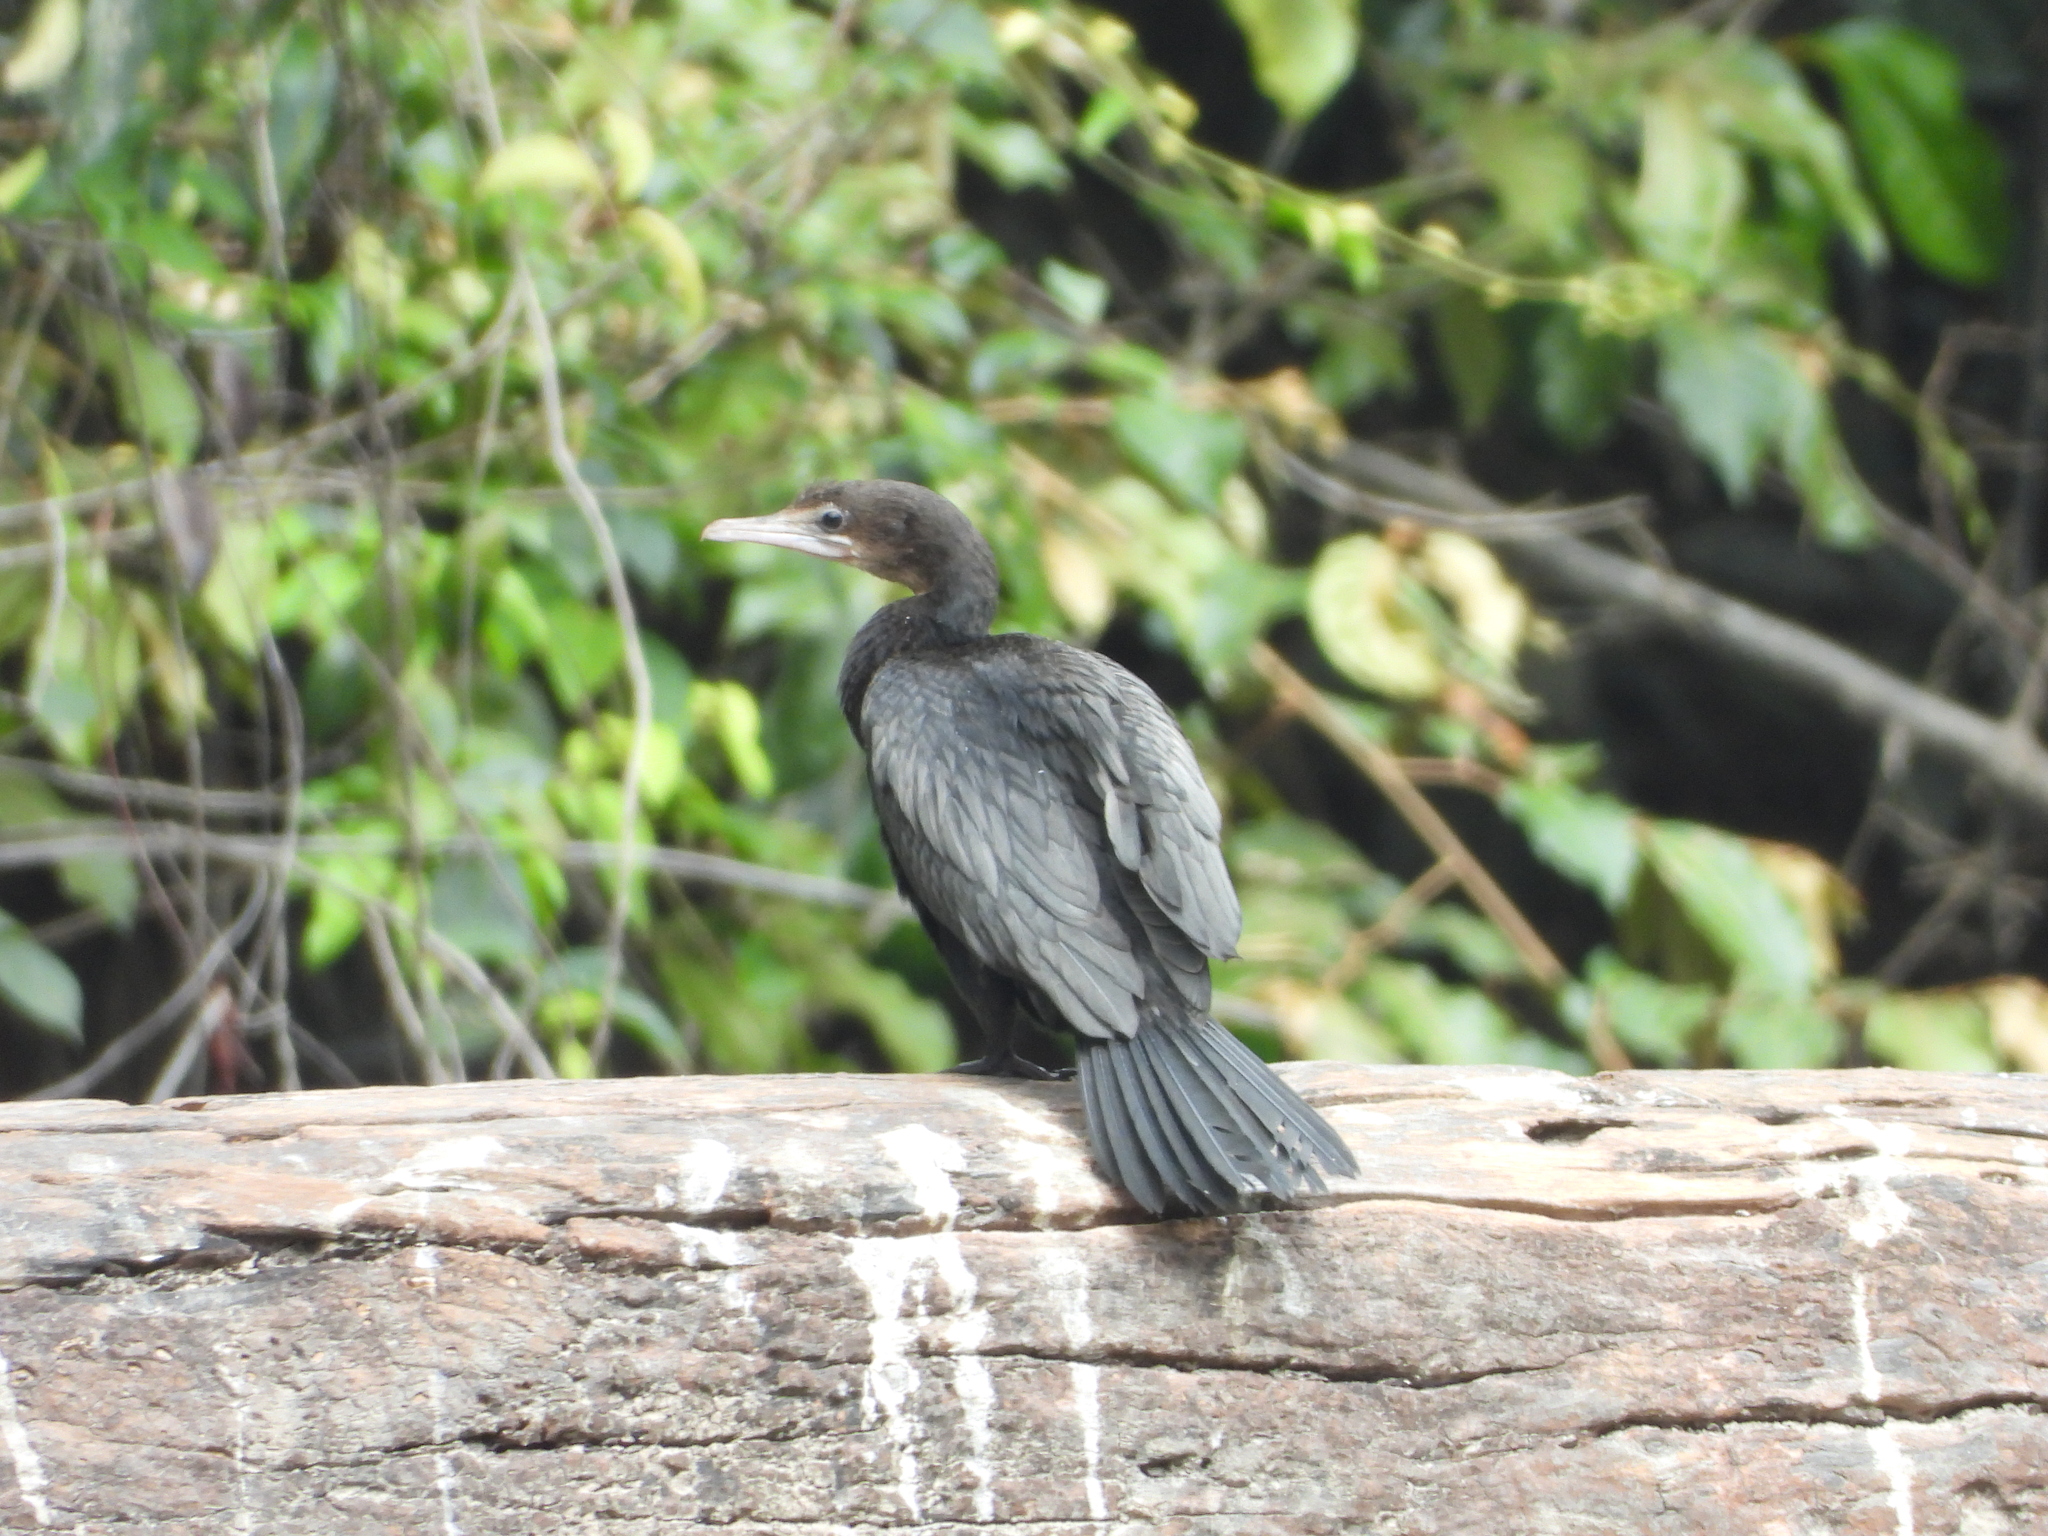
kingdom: Animalia
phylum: Chordata
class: Aves
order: Suliformes
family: Phalacrocoracidae
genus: Microcarbo
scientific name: Microcarbo niger
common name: Little cormorant
